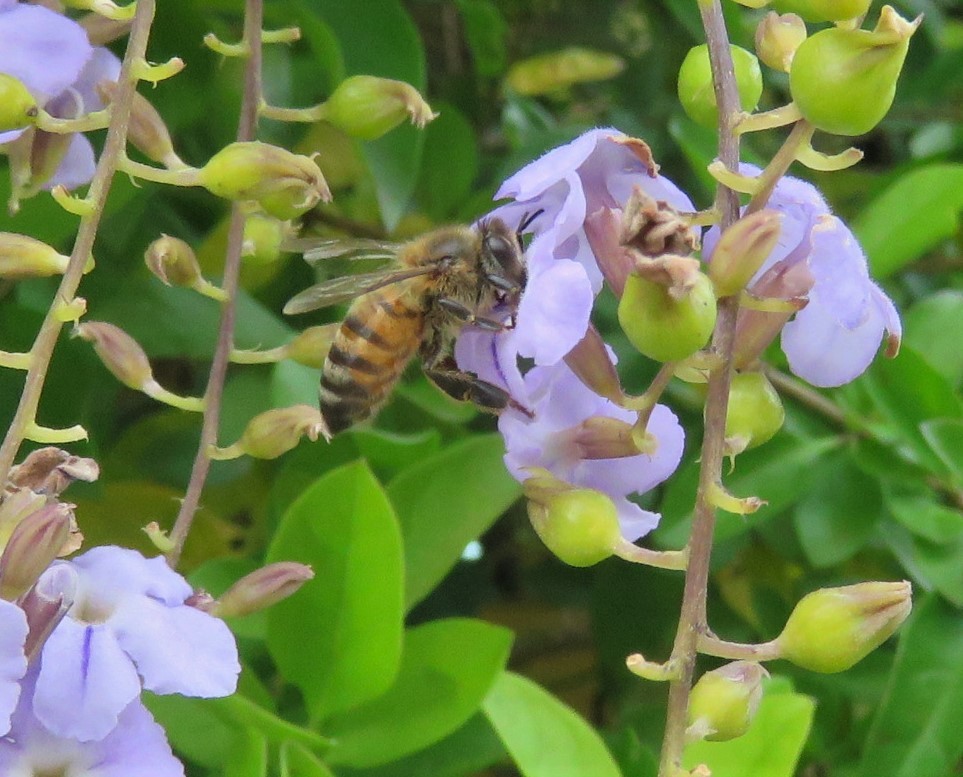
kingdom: Animalia
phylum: Arthropoda
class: Insecta
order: Hymenoptera
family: Apidae
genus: Apis
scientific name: Apis mellifera
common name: Honey bee
